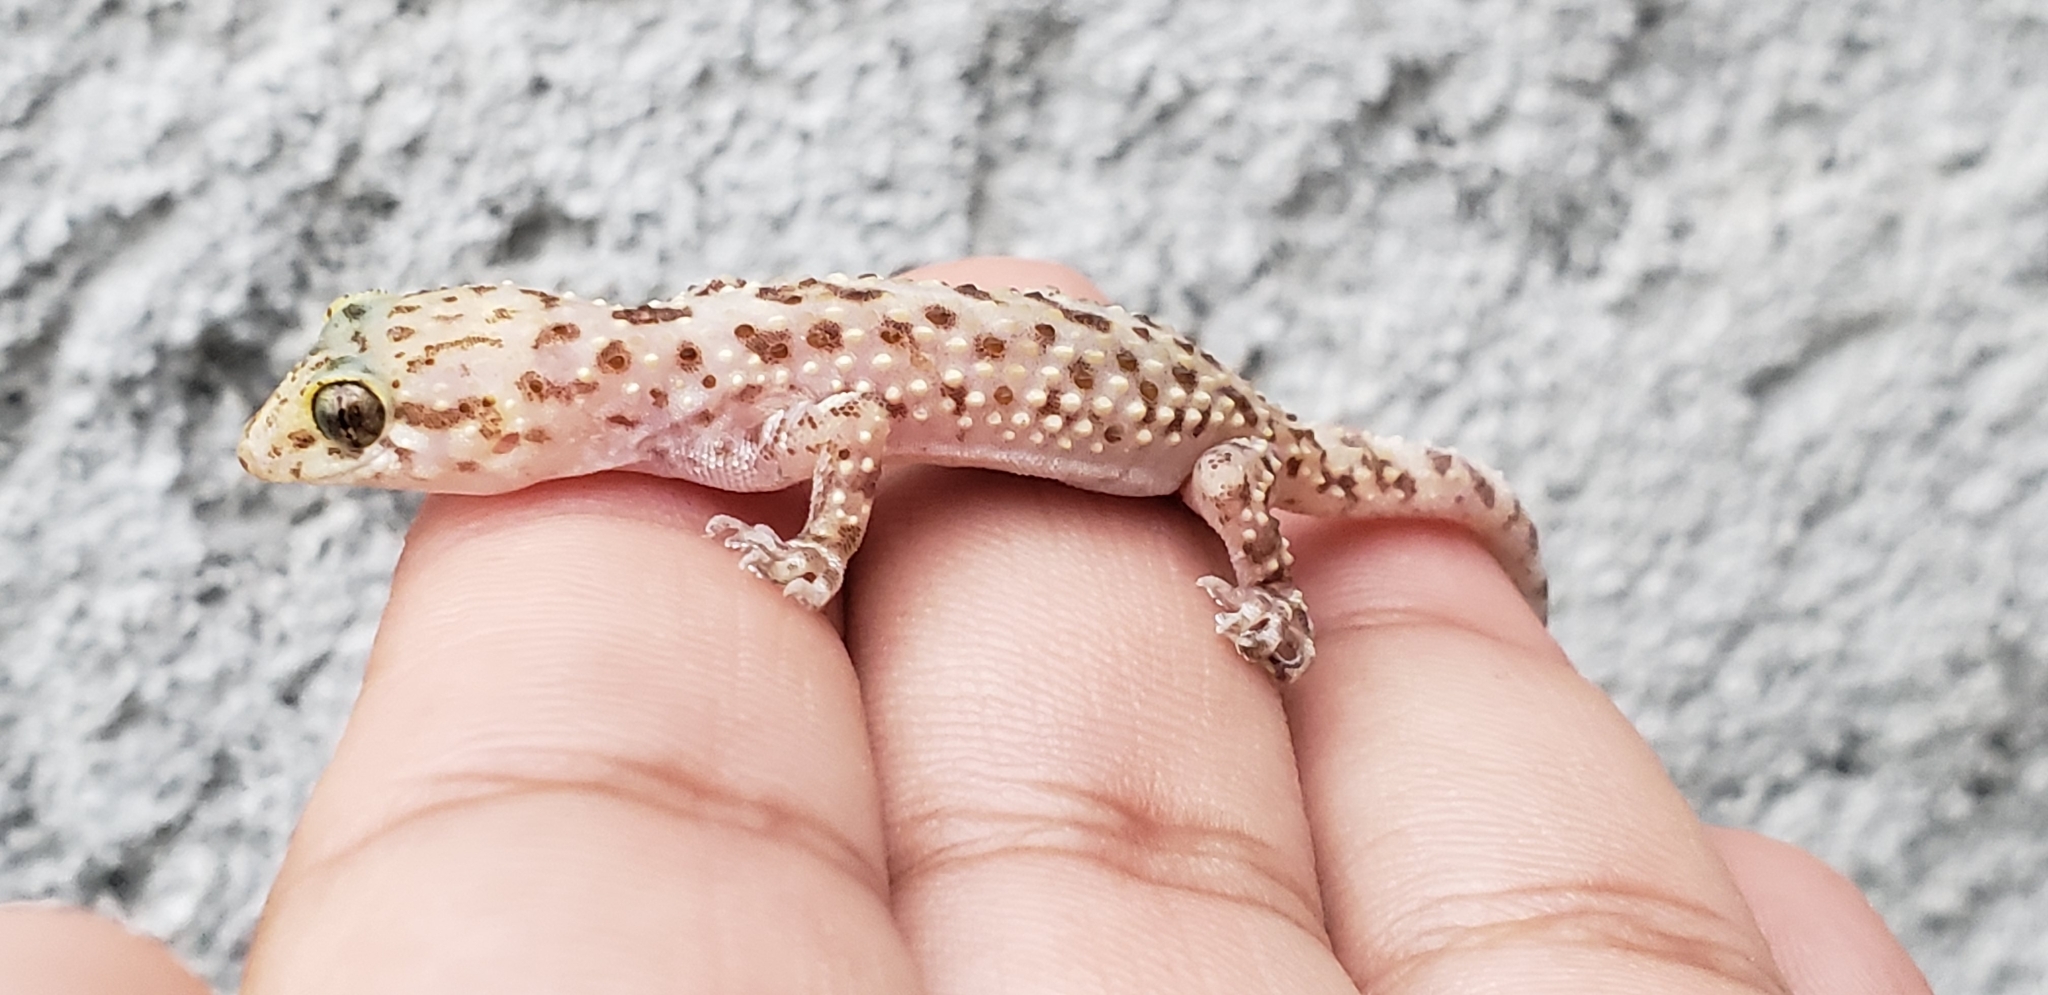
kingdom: Animalia
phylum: Chordata
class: Squamata
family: Gekkonidae
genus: Hemidactylus
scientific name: Hemidactylus turcicus
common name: Turkish gecko
